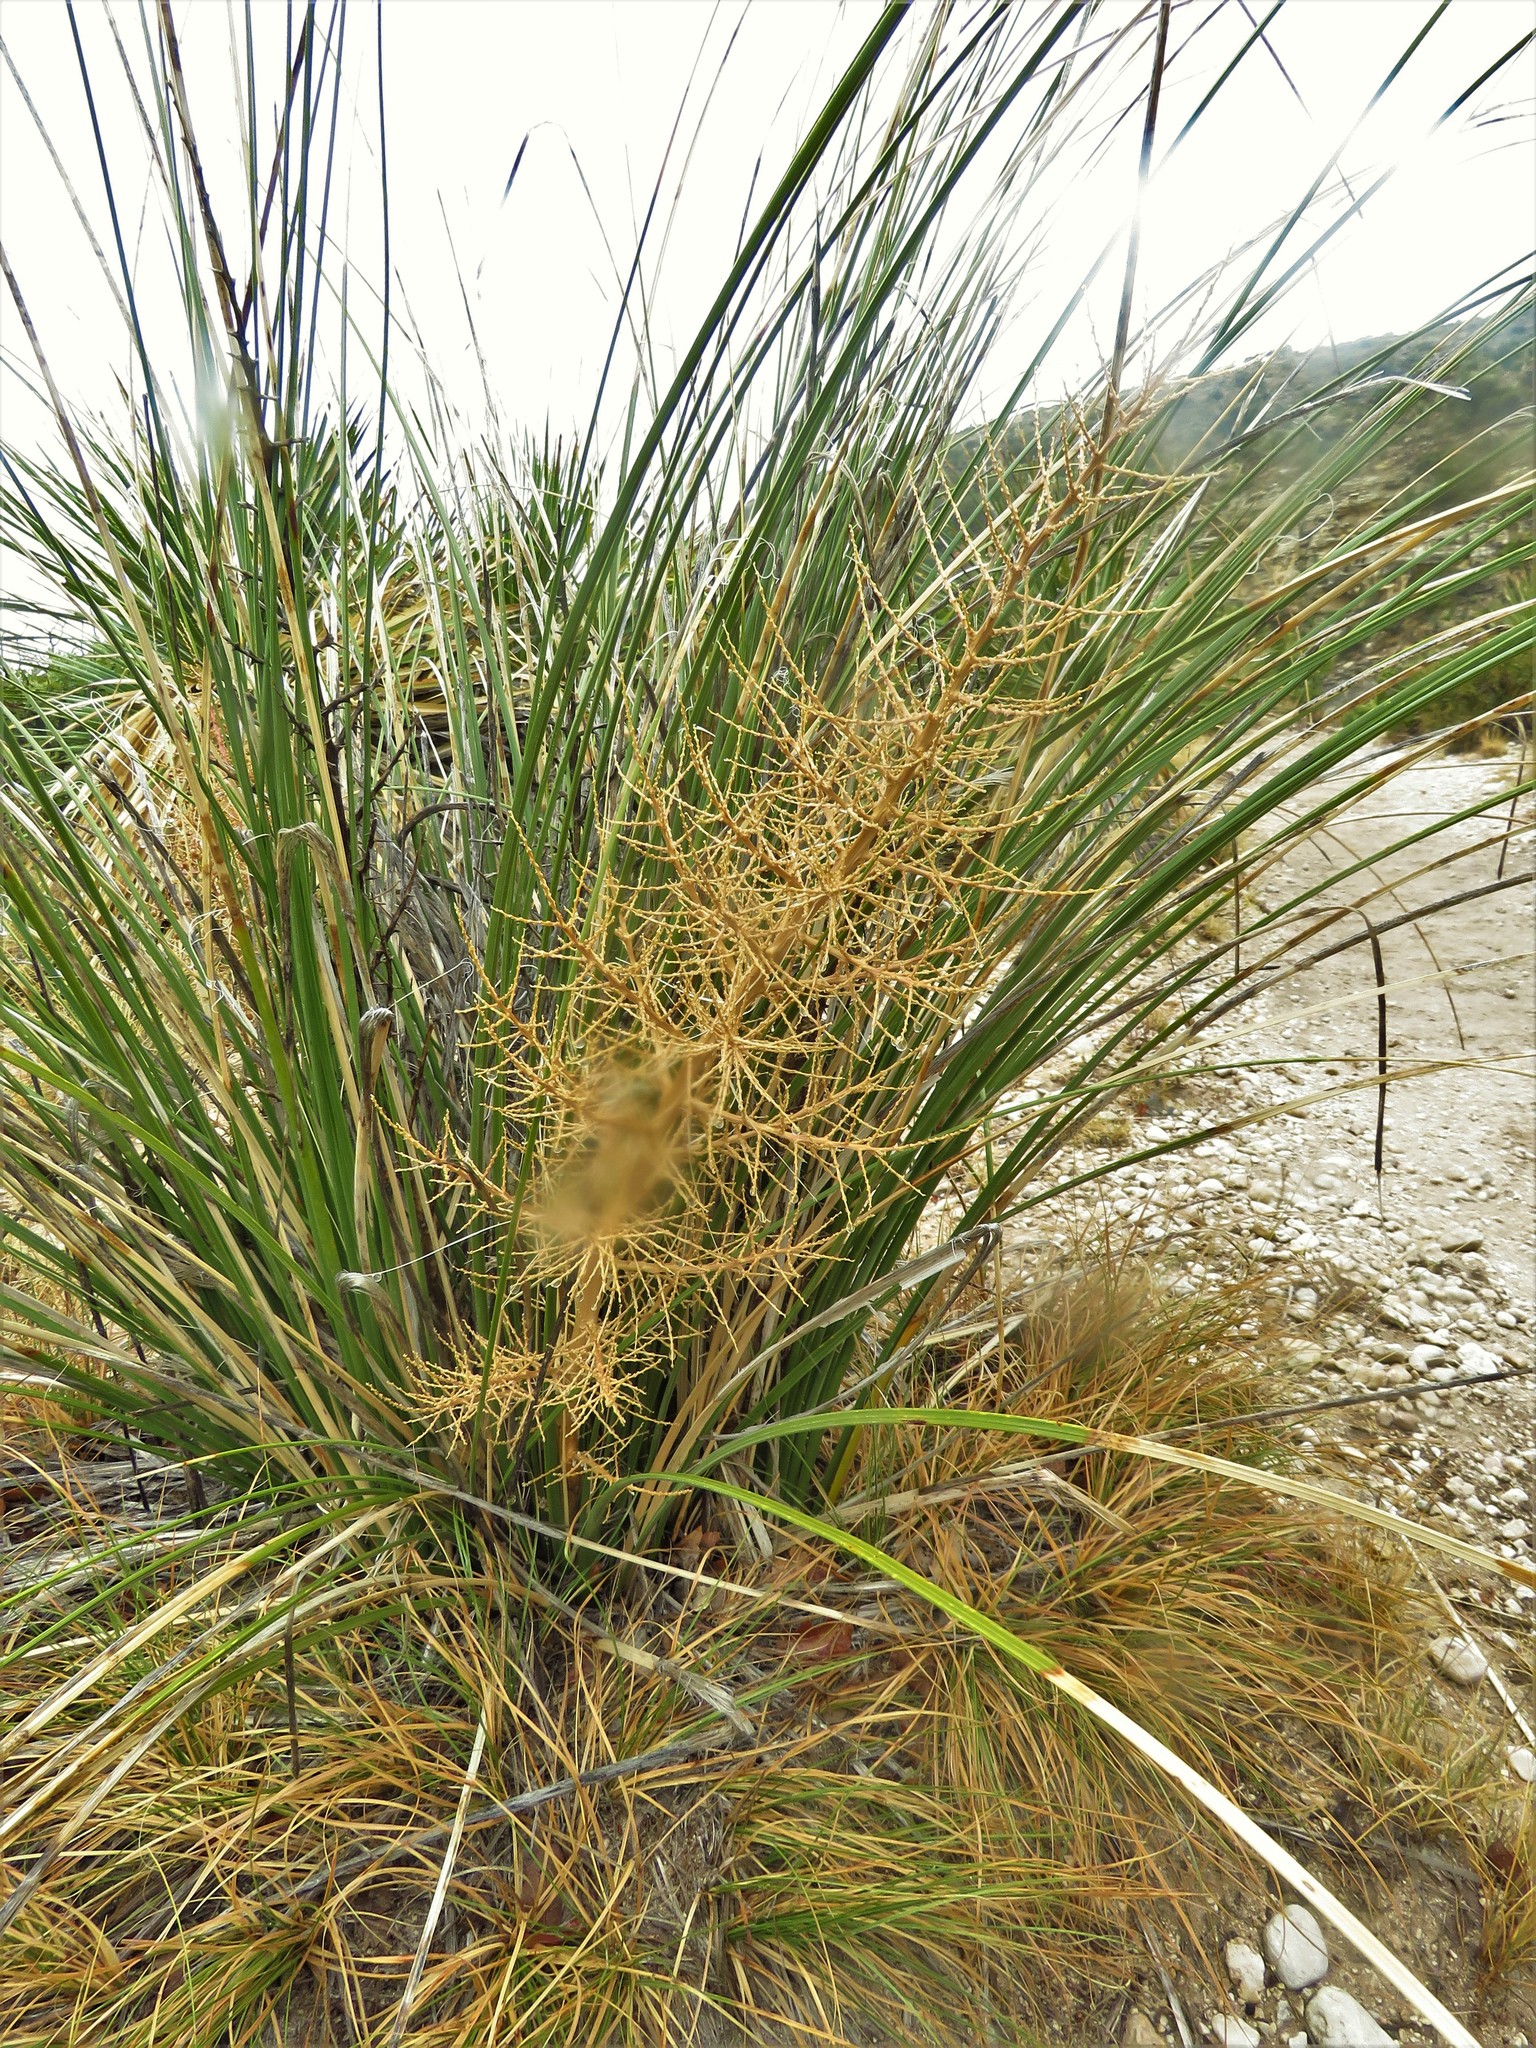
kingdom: Plantae
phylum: Tracheophyta
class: Liliopsida
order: Asparagales
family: Asparagaceae
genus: Nolina
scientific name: Nolina texana
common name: Texas sacahuiste
